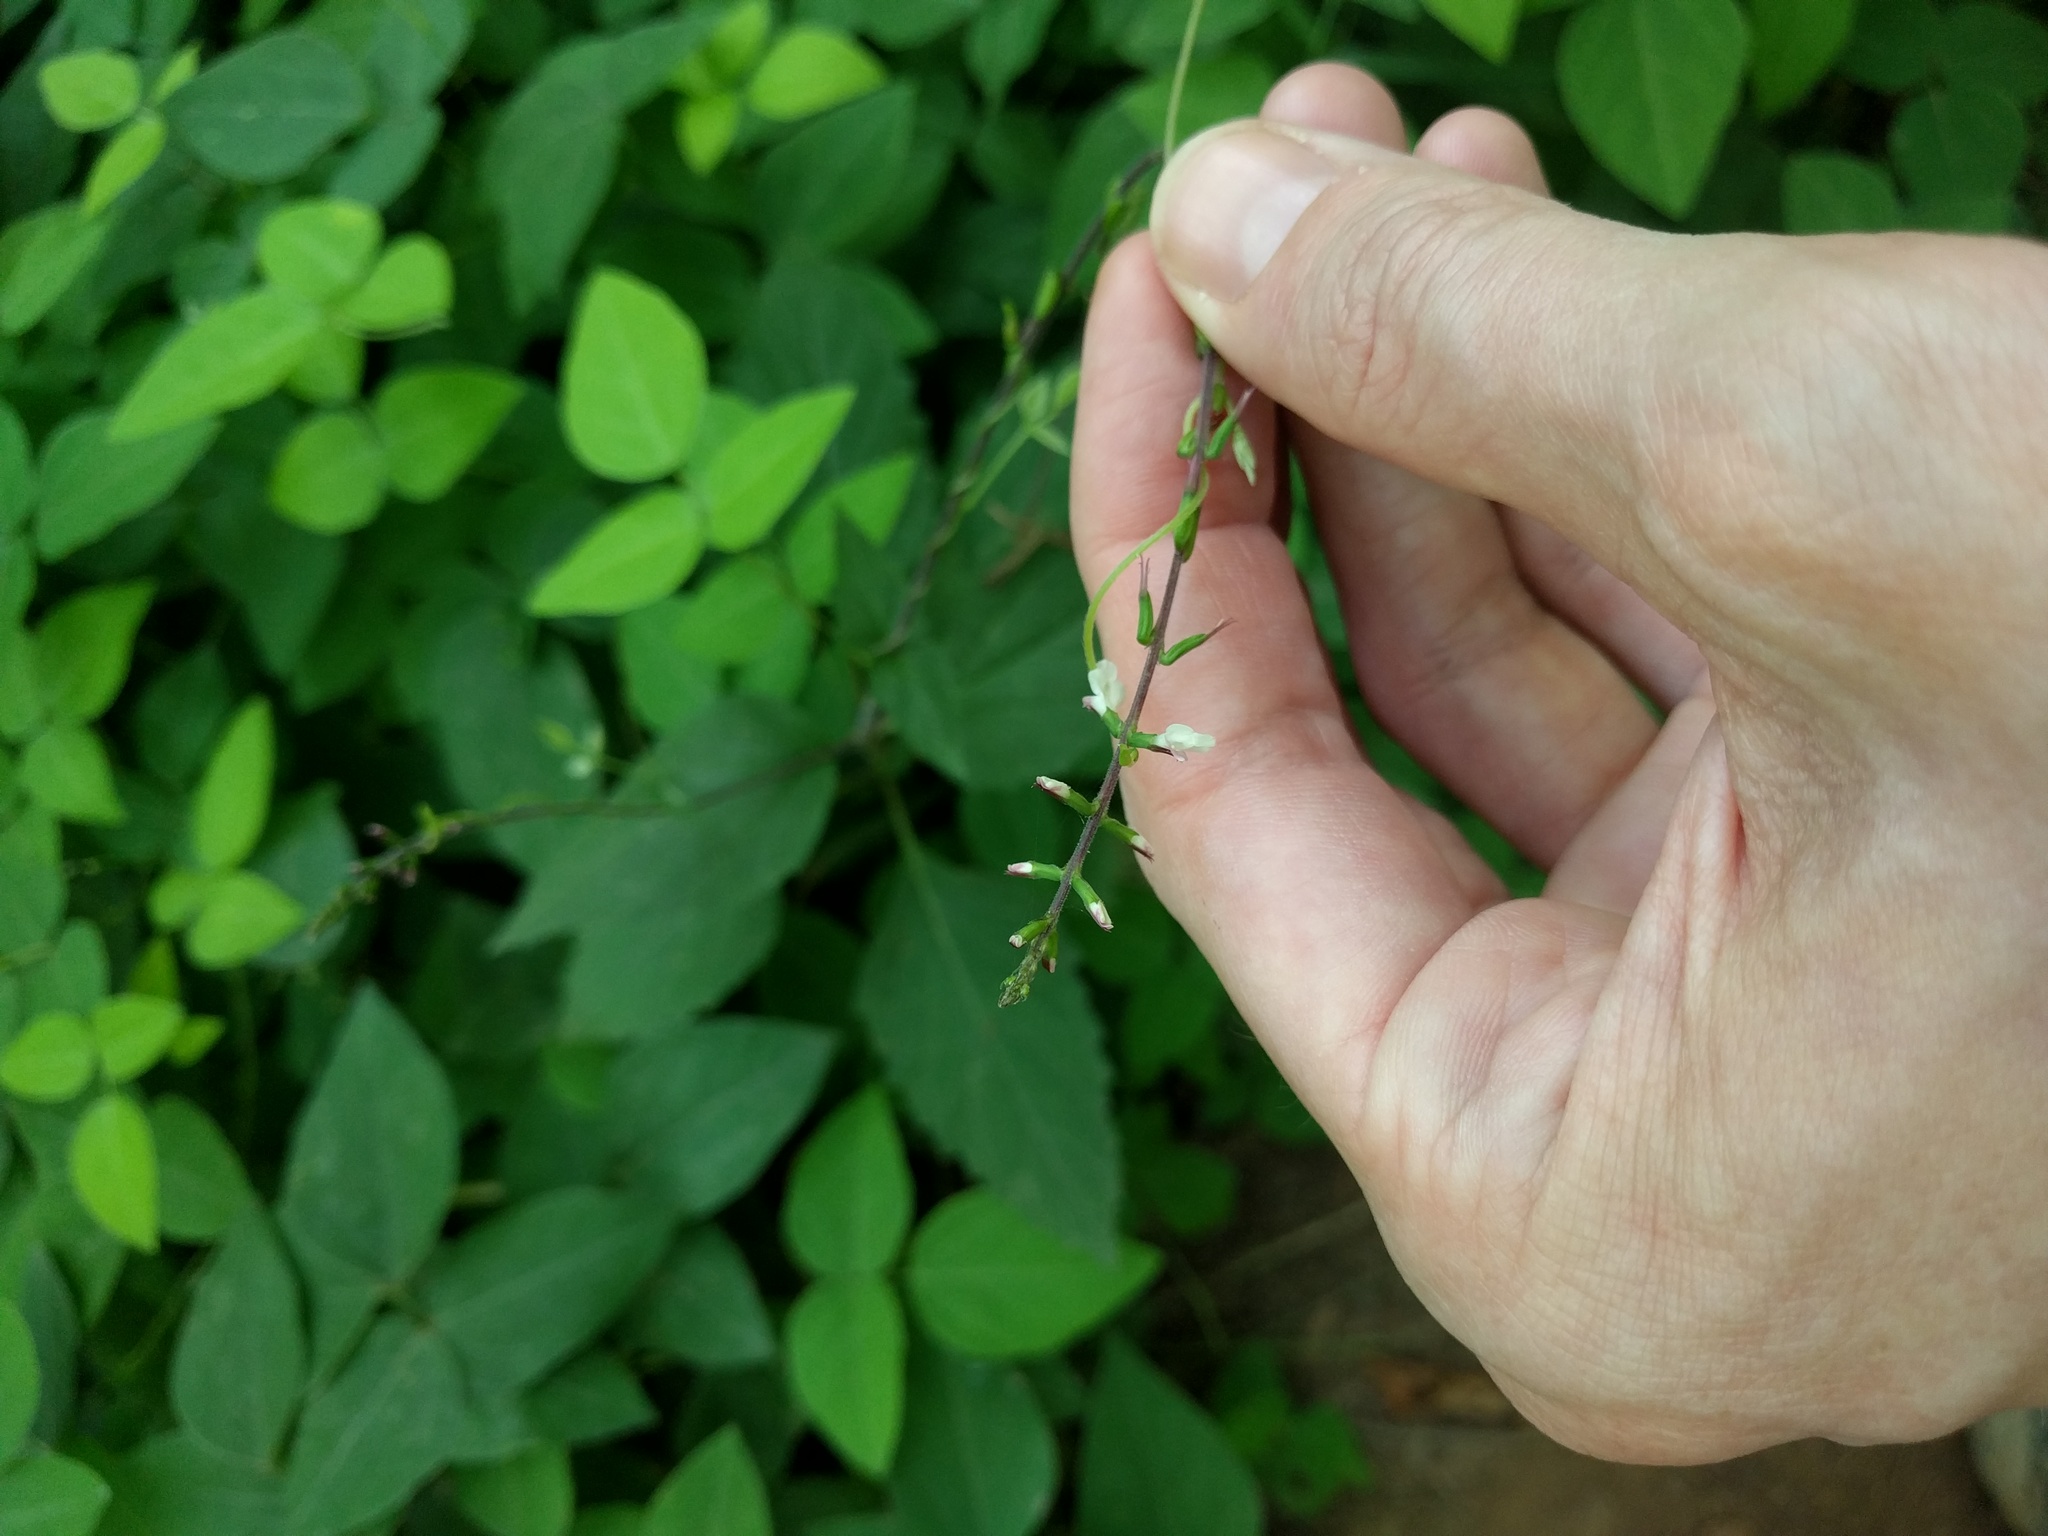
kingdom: Plantae
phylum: Tracheophyta
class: Magnoliopsida
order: Lamiales
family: Phrymaceae
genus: Phryma
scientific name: Phryma leptostachya
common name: American lopseed
